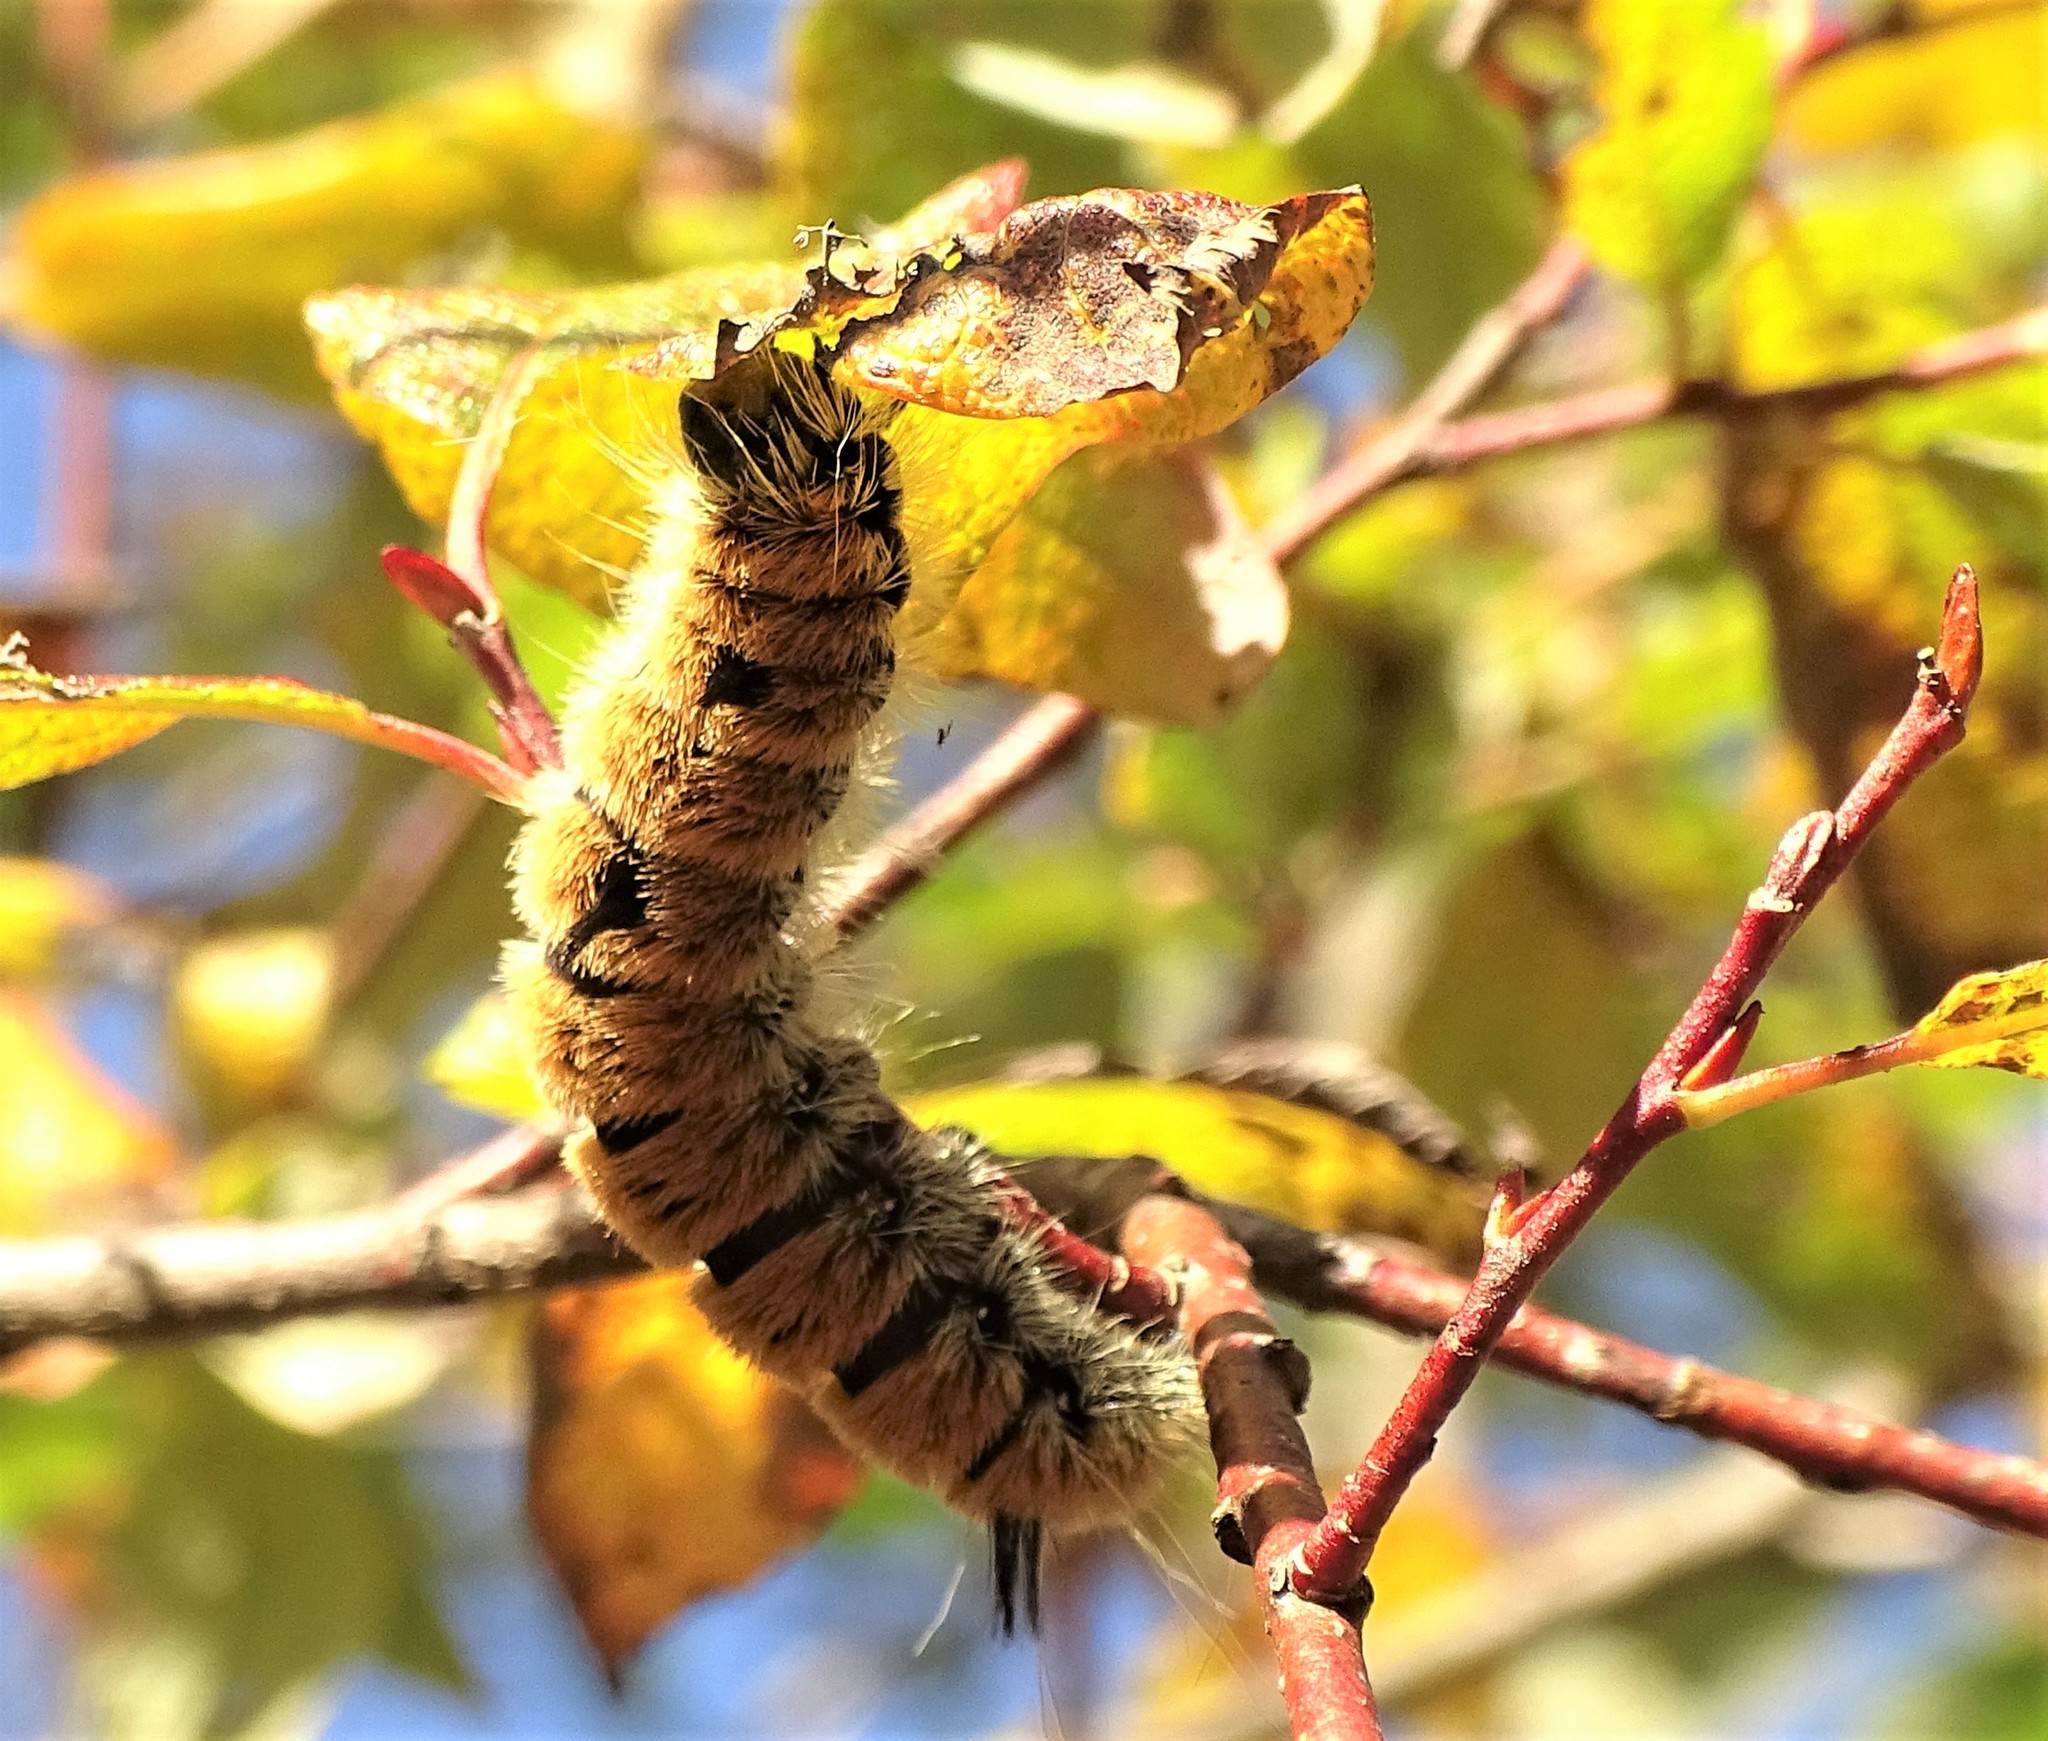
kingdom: Animalia
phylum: Arthropoda
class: Insecta
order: Lepidoptera
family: Noctuidae
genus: Acronicta
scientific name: Acronicta insita
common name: Large gray dagger
